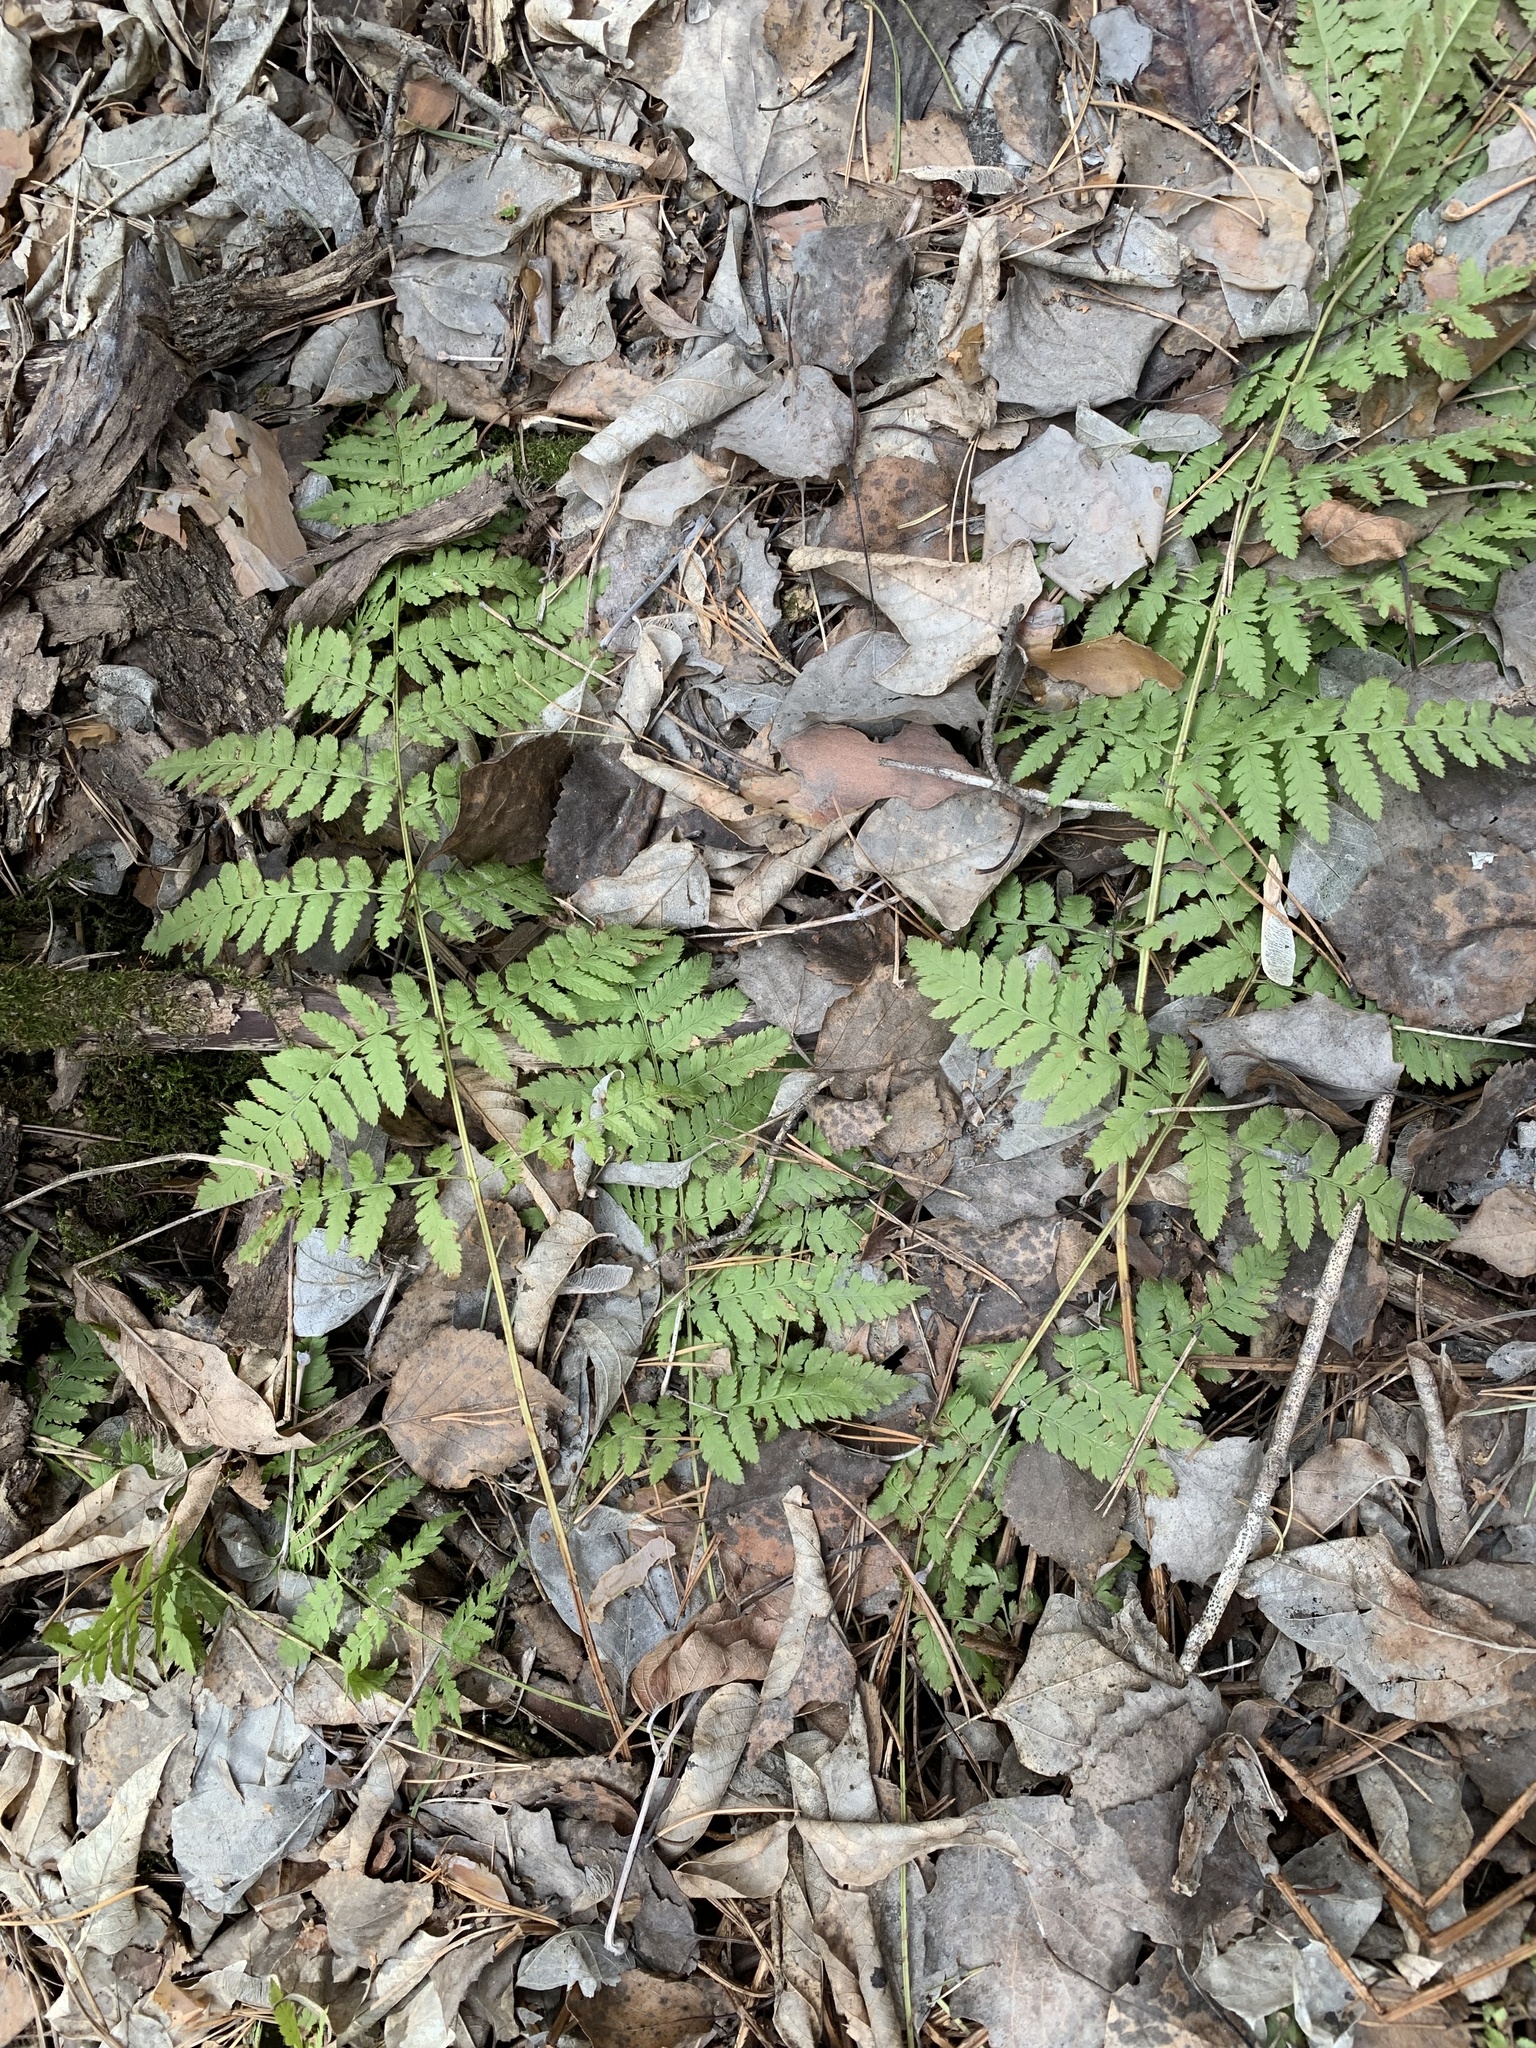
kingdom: Plantae
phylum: Tracheophyta
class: Polypodiopsida
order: Polypodiales
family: Dryopteridaceae
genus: Dryopteris
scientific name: Dryopteris carthusiana
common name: Narrow buckler-fern
